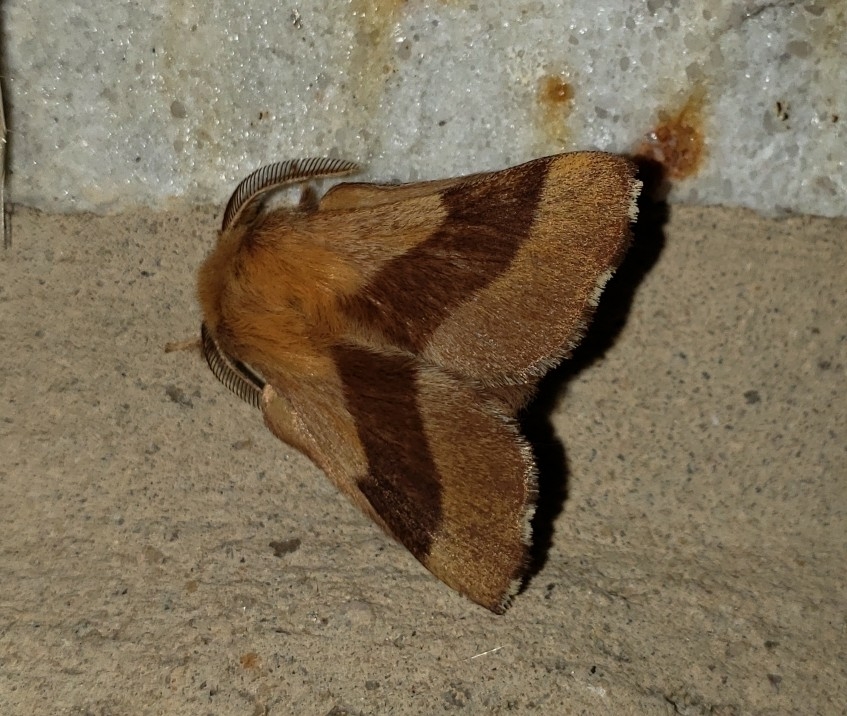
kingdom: Animalia
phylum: Arthropoda
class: Insecta
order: Lepidoptera
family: Lasiocampidae
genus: Malacosoma
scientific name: Malacosoma disstria
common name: Forest tent caterpillar
